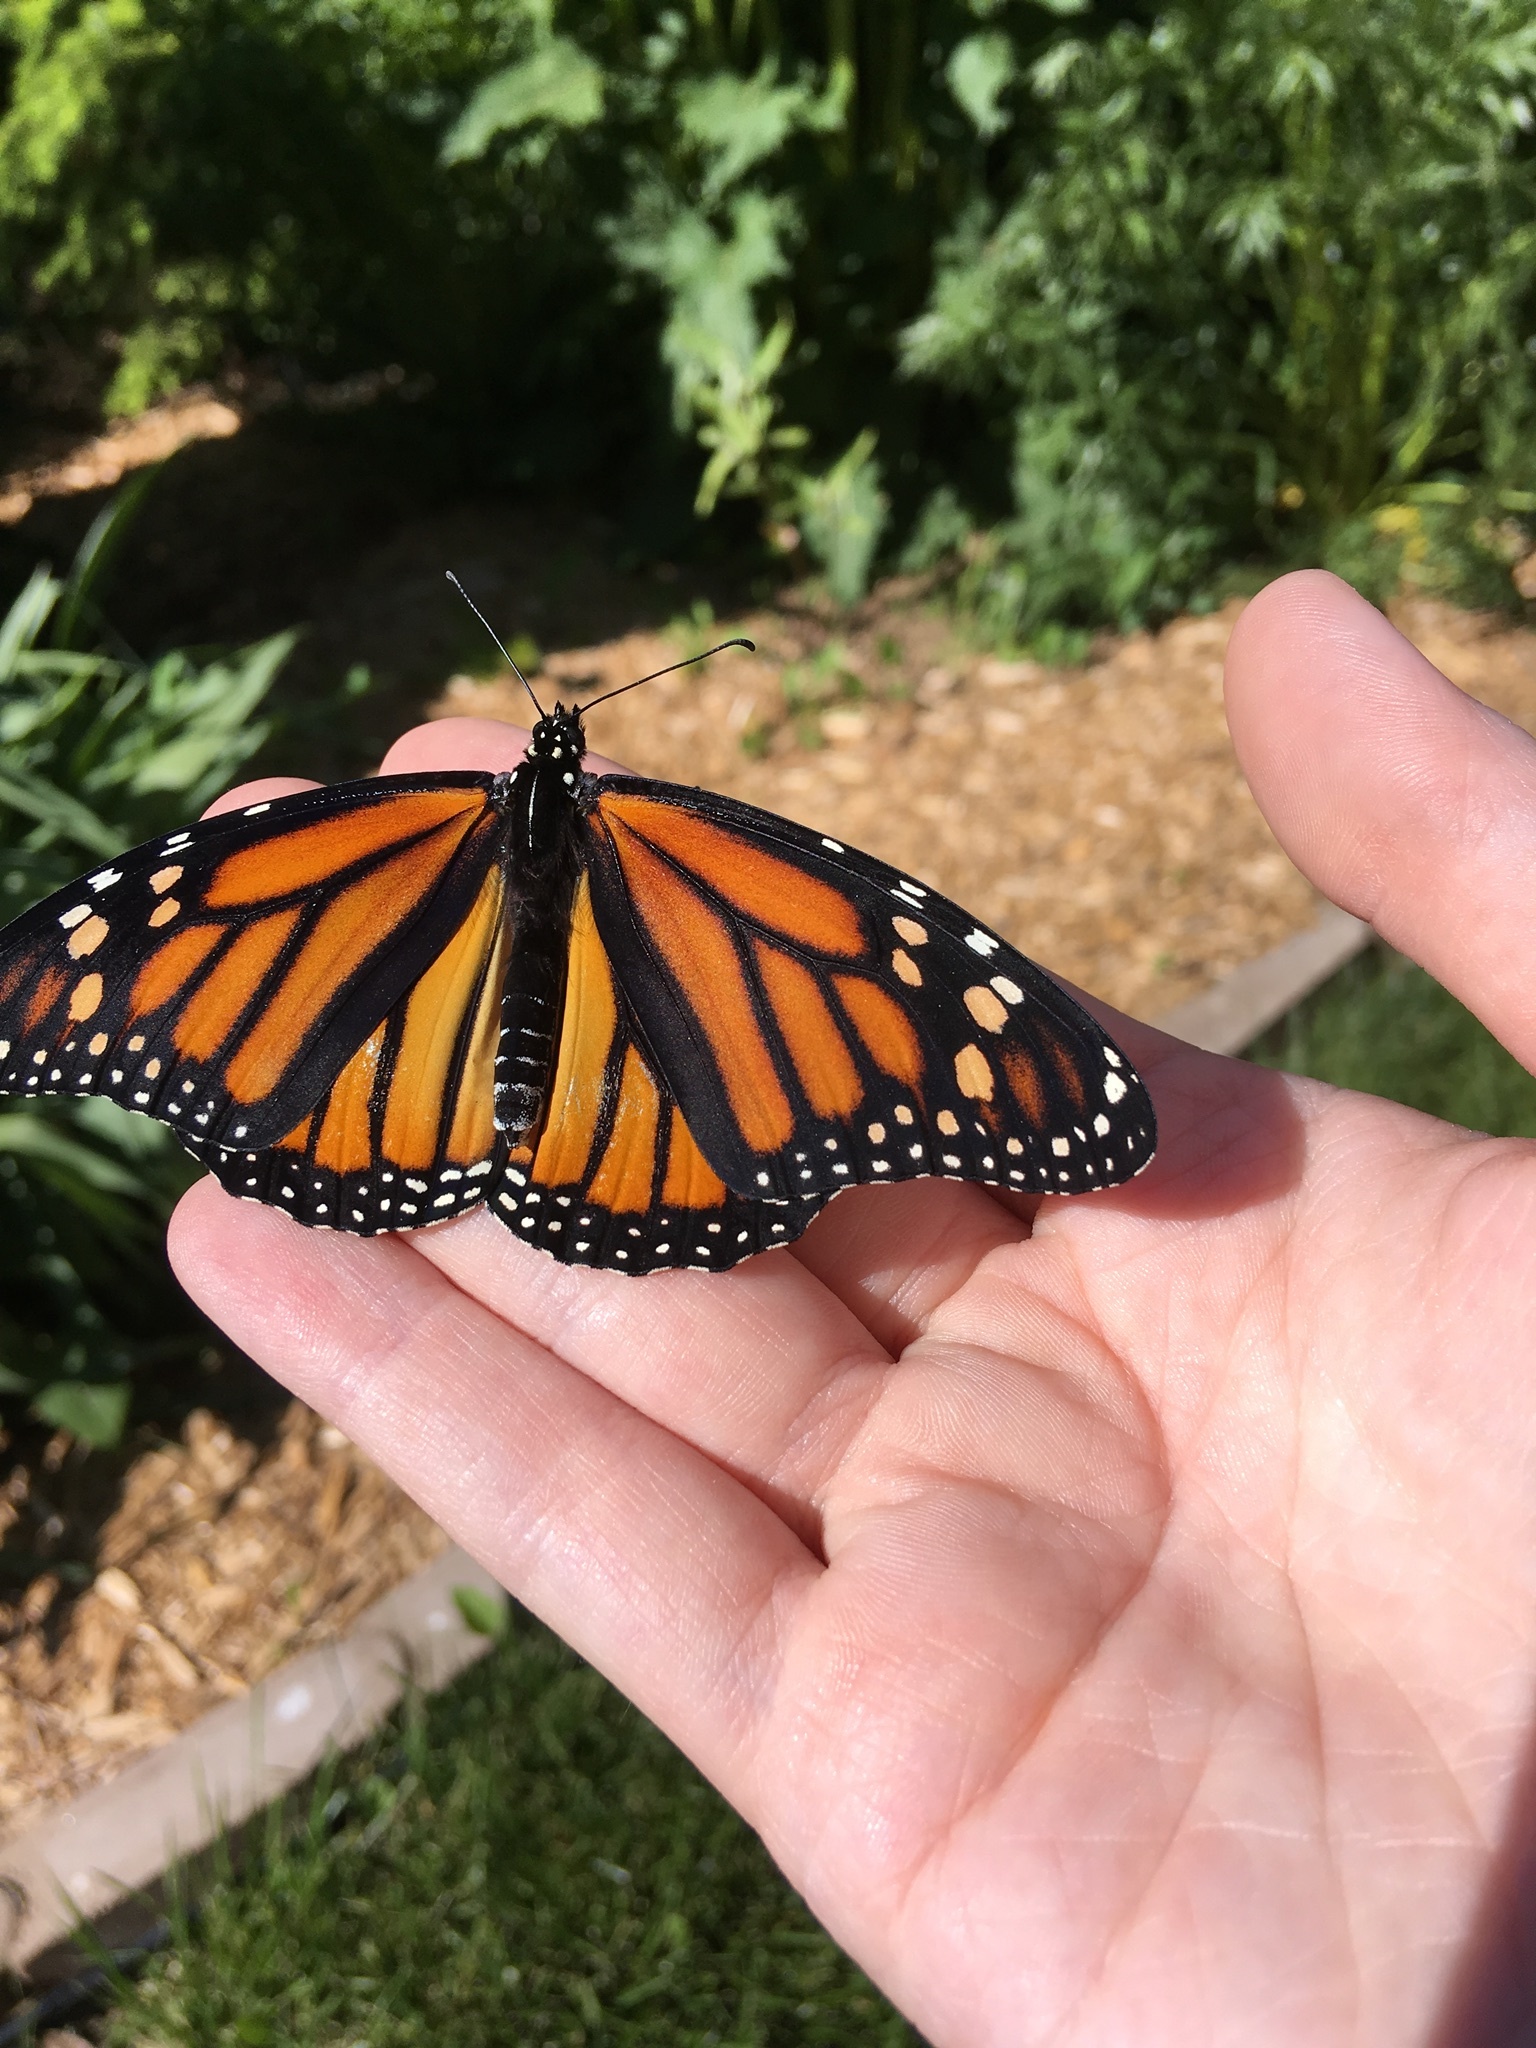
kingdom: Animalia
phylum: Arthropoda
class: Insecta
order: Lepidoptera
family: Nymphalidae
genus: Danaus
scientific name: Danaus plexippus
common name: Monarch
